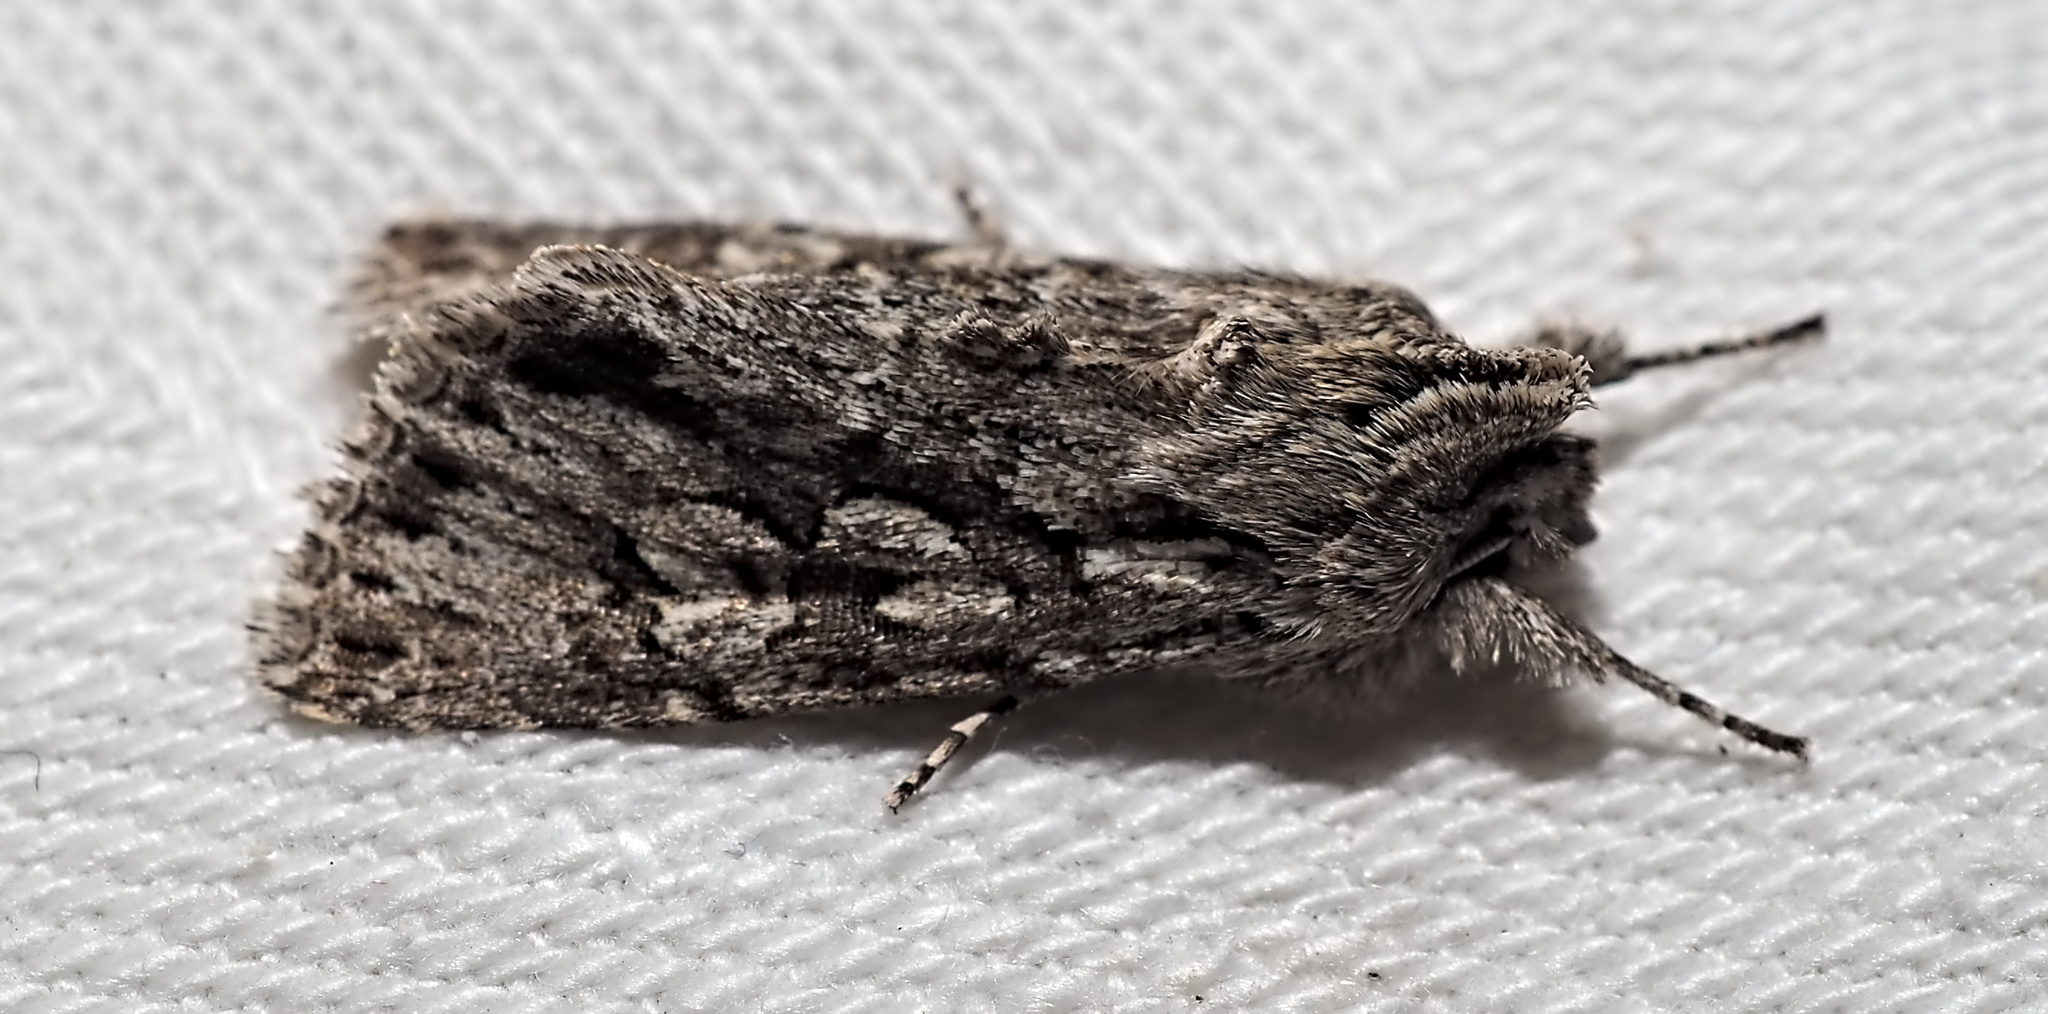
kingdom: Animalia
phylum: Arthropoda
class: Insecta
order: Lepidoptera
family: Noctuidae
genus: Xylocampa
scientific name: Xylocampa areola
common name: Early grey
